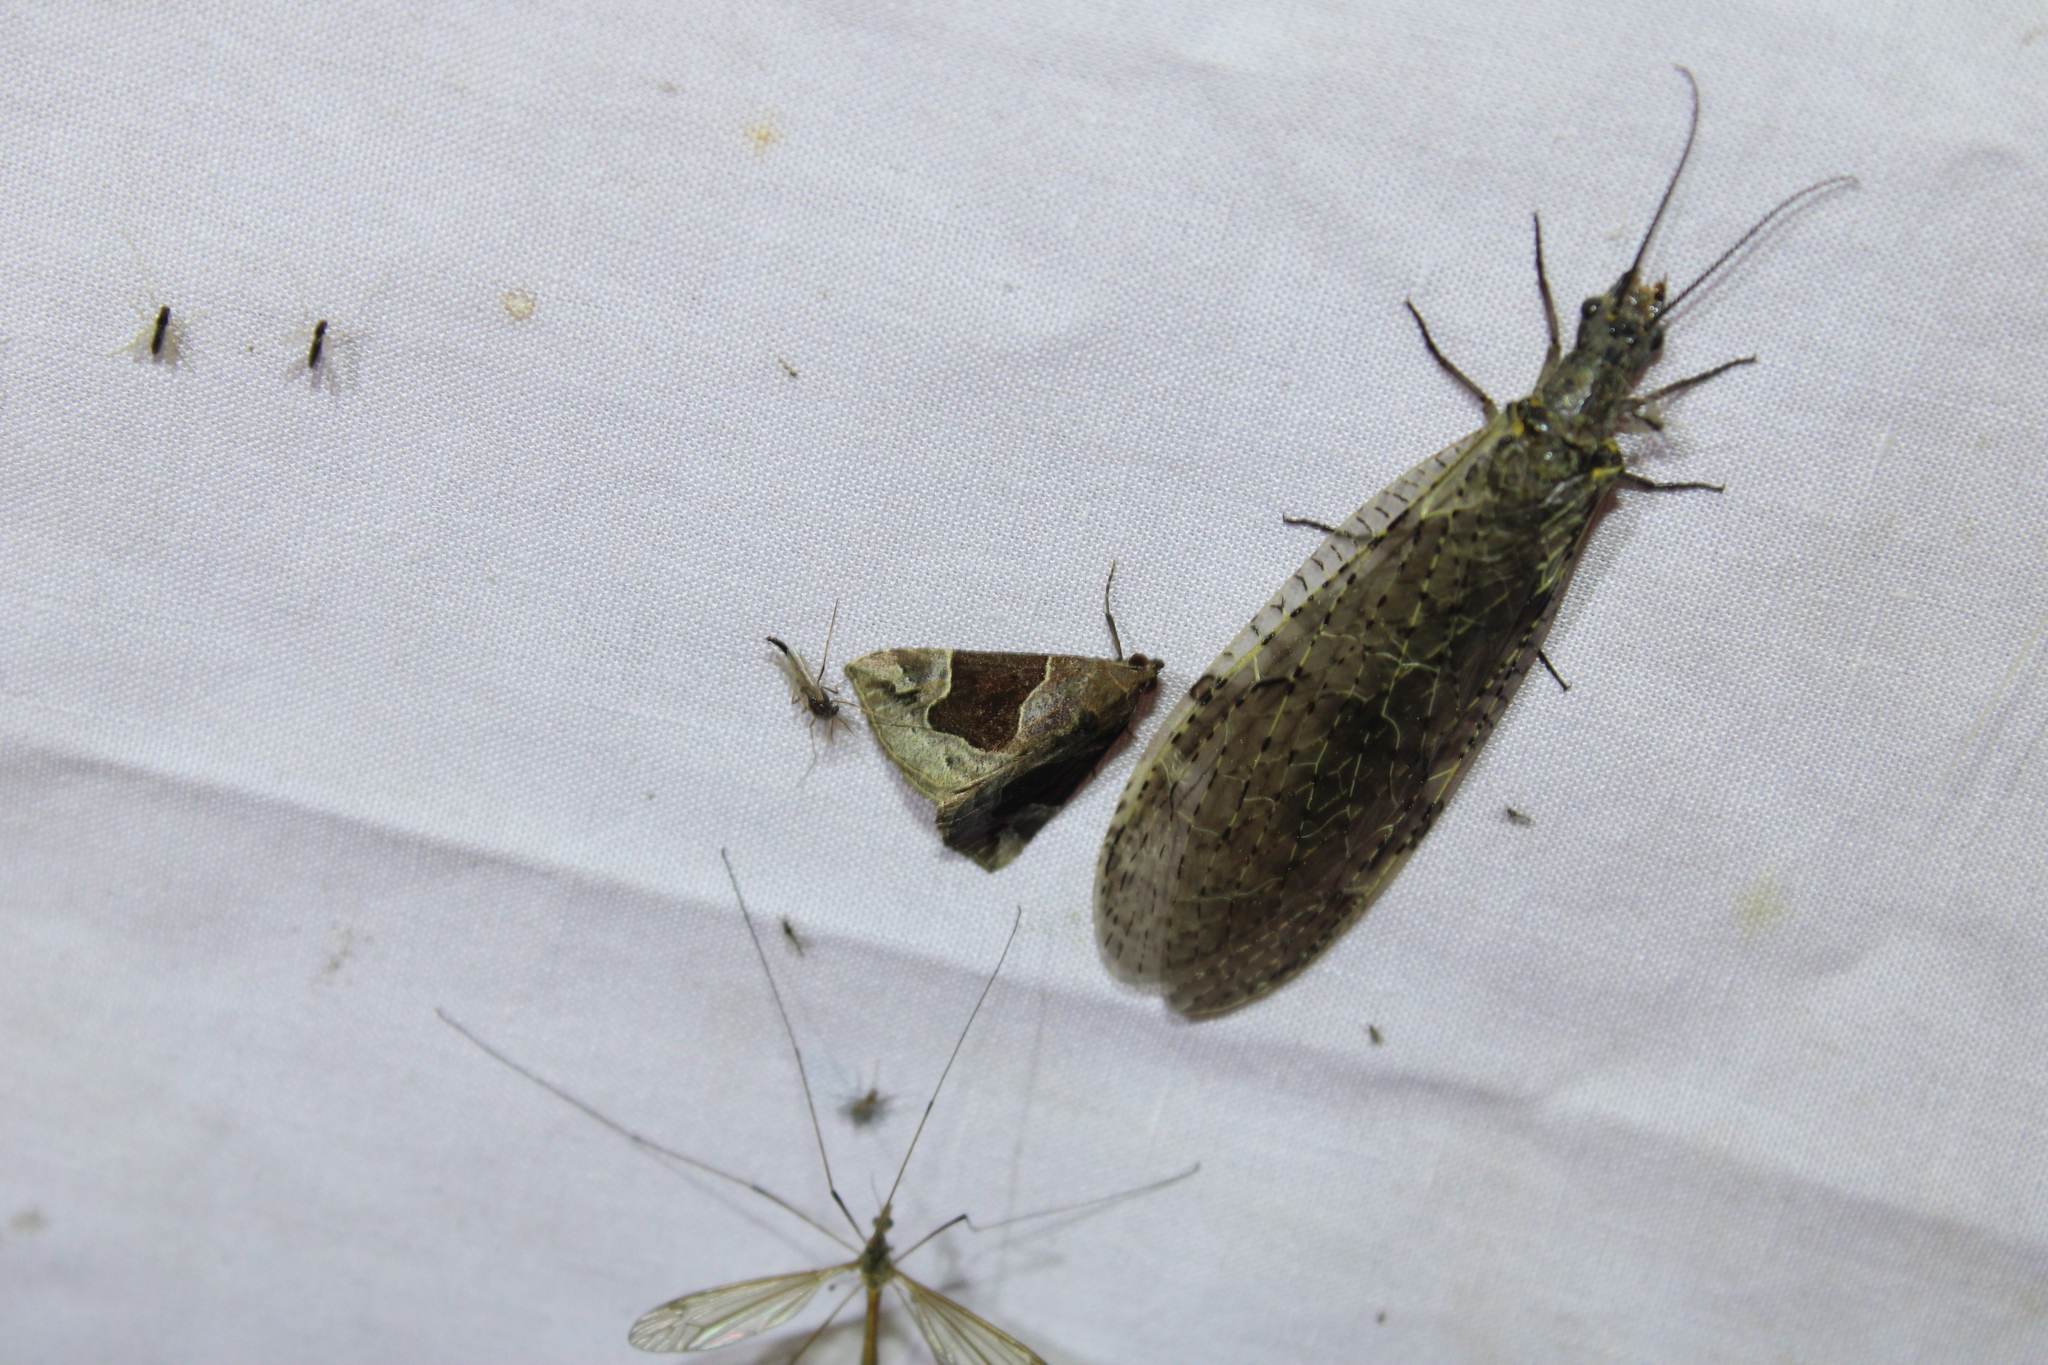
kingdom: Animalia
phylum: Arthropoda
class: Insecta
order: Lepidoptera
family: Erebidae
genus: Hypena
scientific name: Hypena manalis
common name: Flowing-line bomolocha moth
